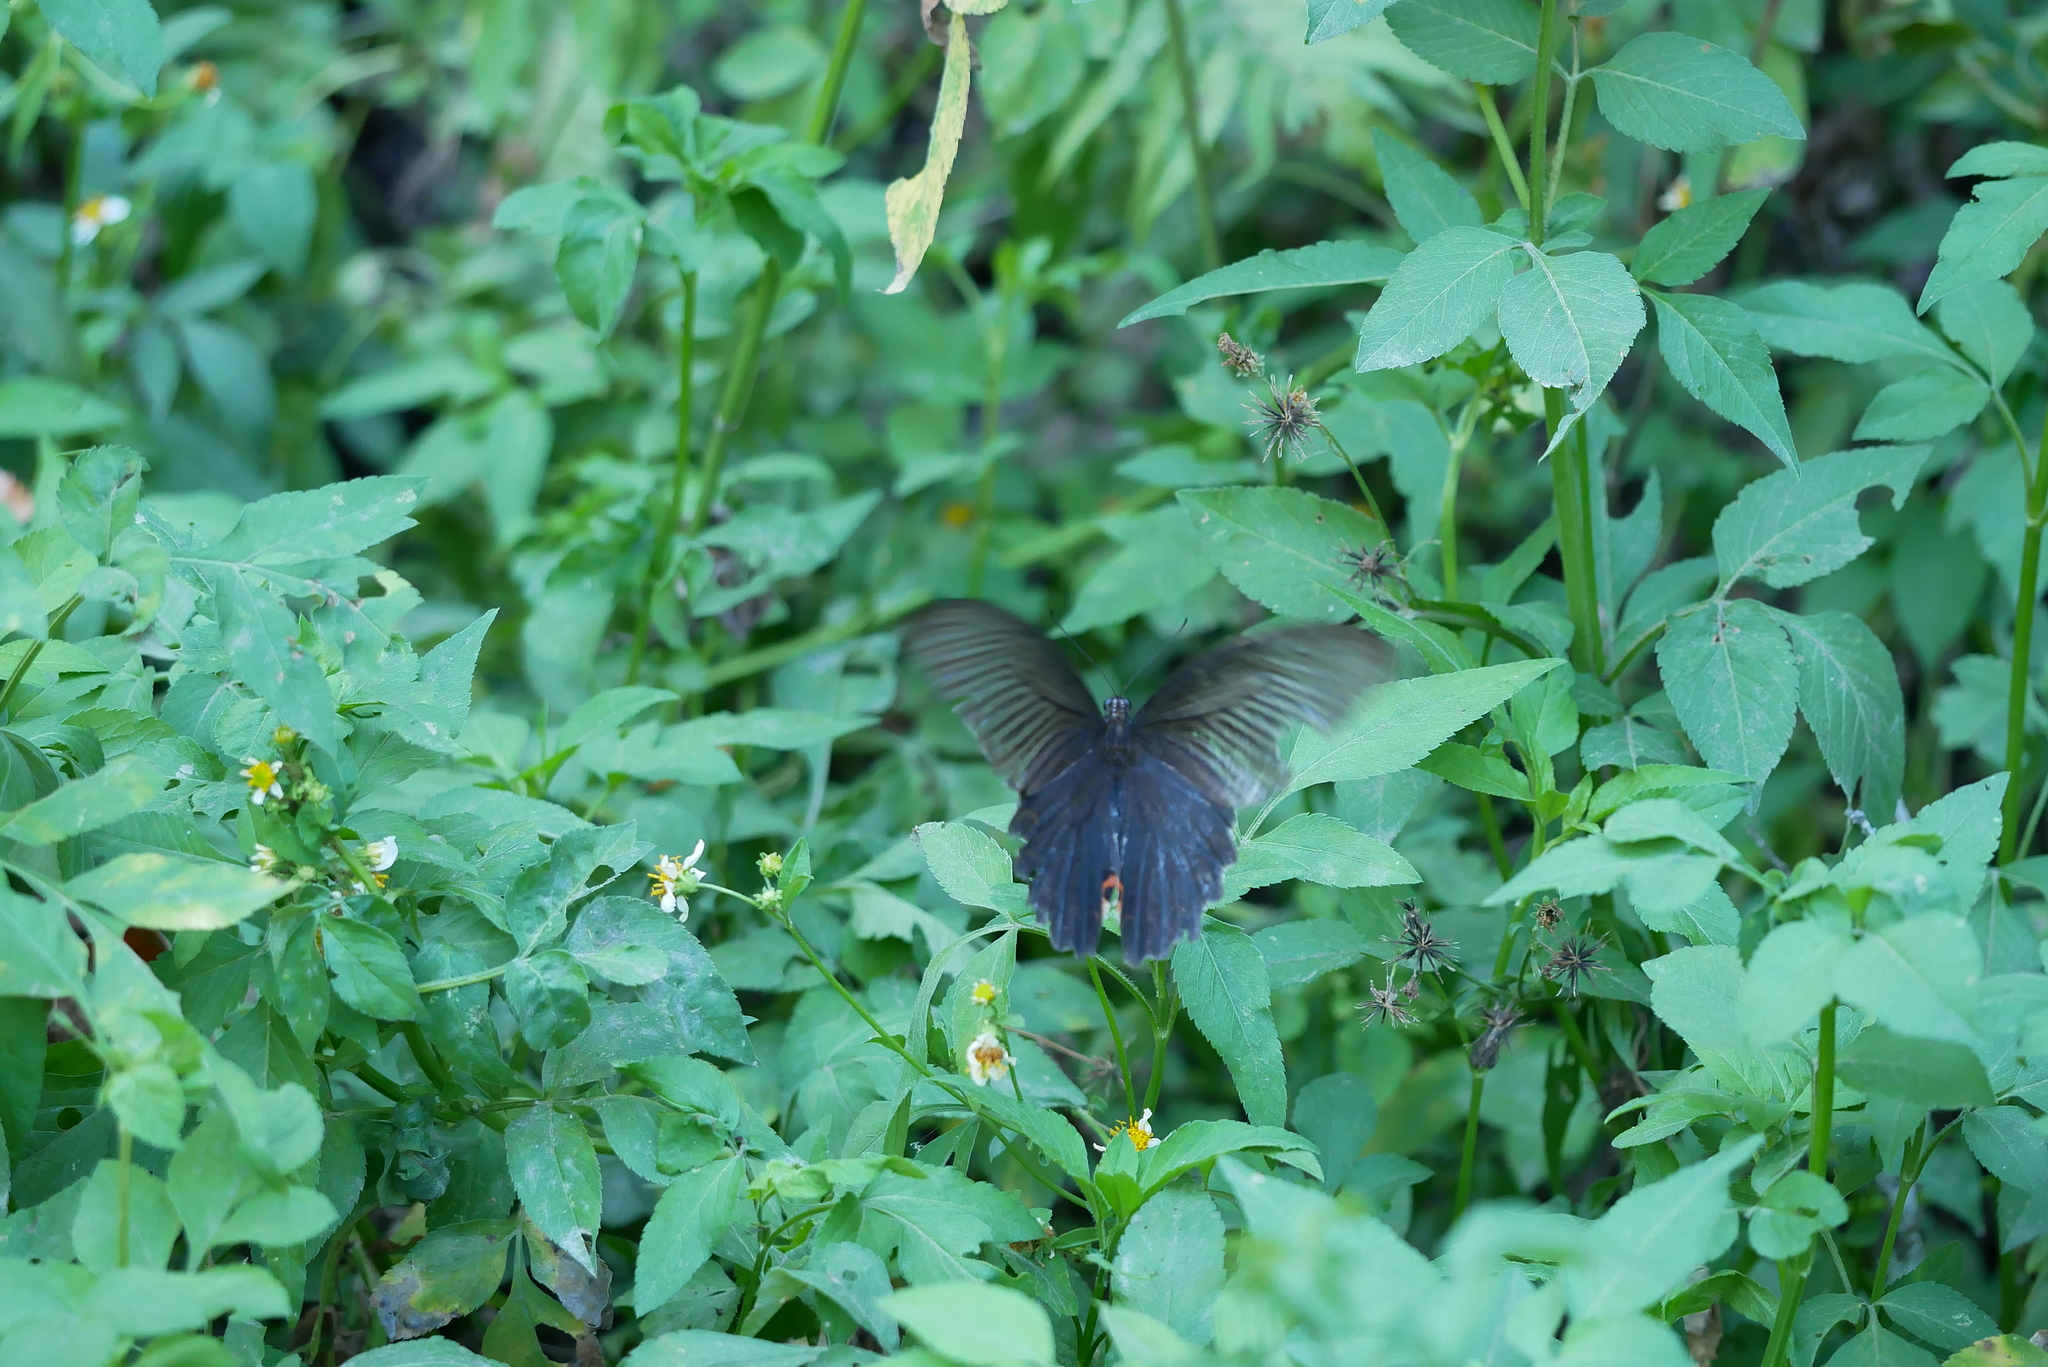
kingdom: Animalia
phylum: Arthropoda
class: Insecta
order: Lepidoptera
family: Papilionidae
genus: Papilio
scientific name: Papilio protenor
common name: Spangle
